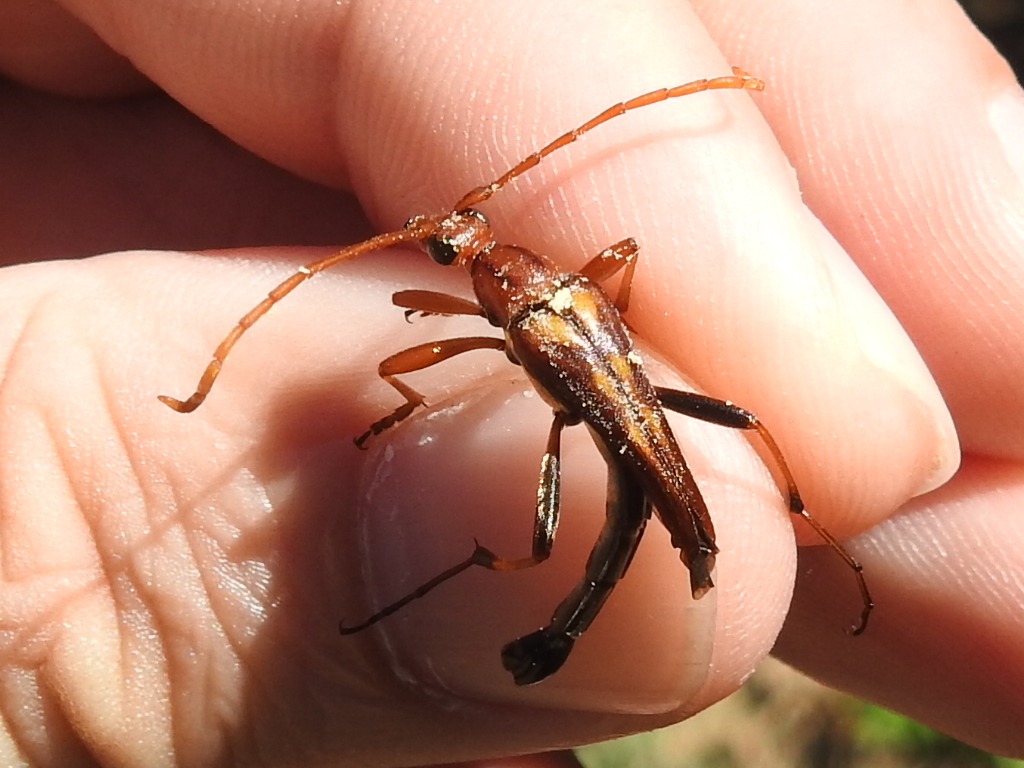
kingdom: Animalia
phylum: Arthropoda
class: Insecta
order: Coleoptera
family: Cerambycidae
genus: Strangalia
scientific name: Strangalia famelica
